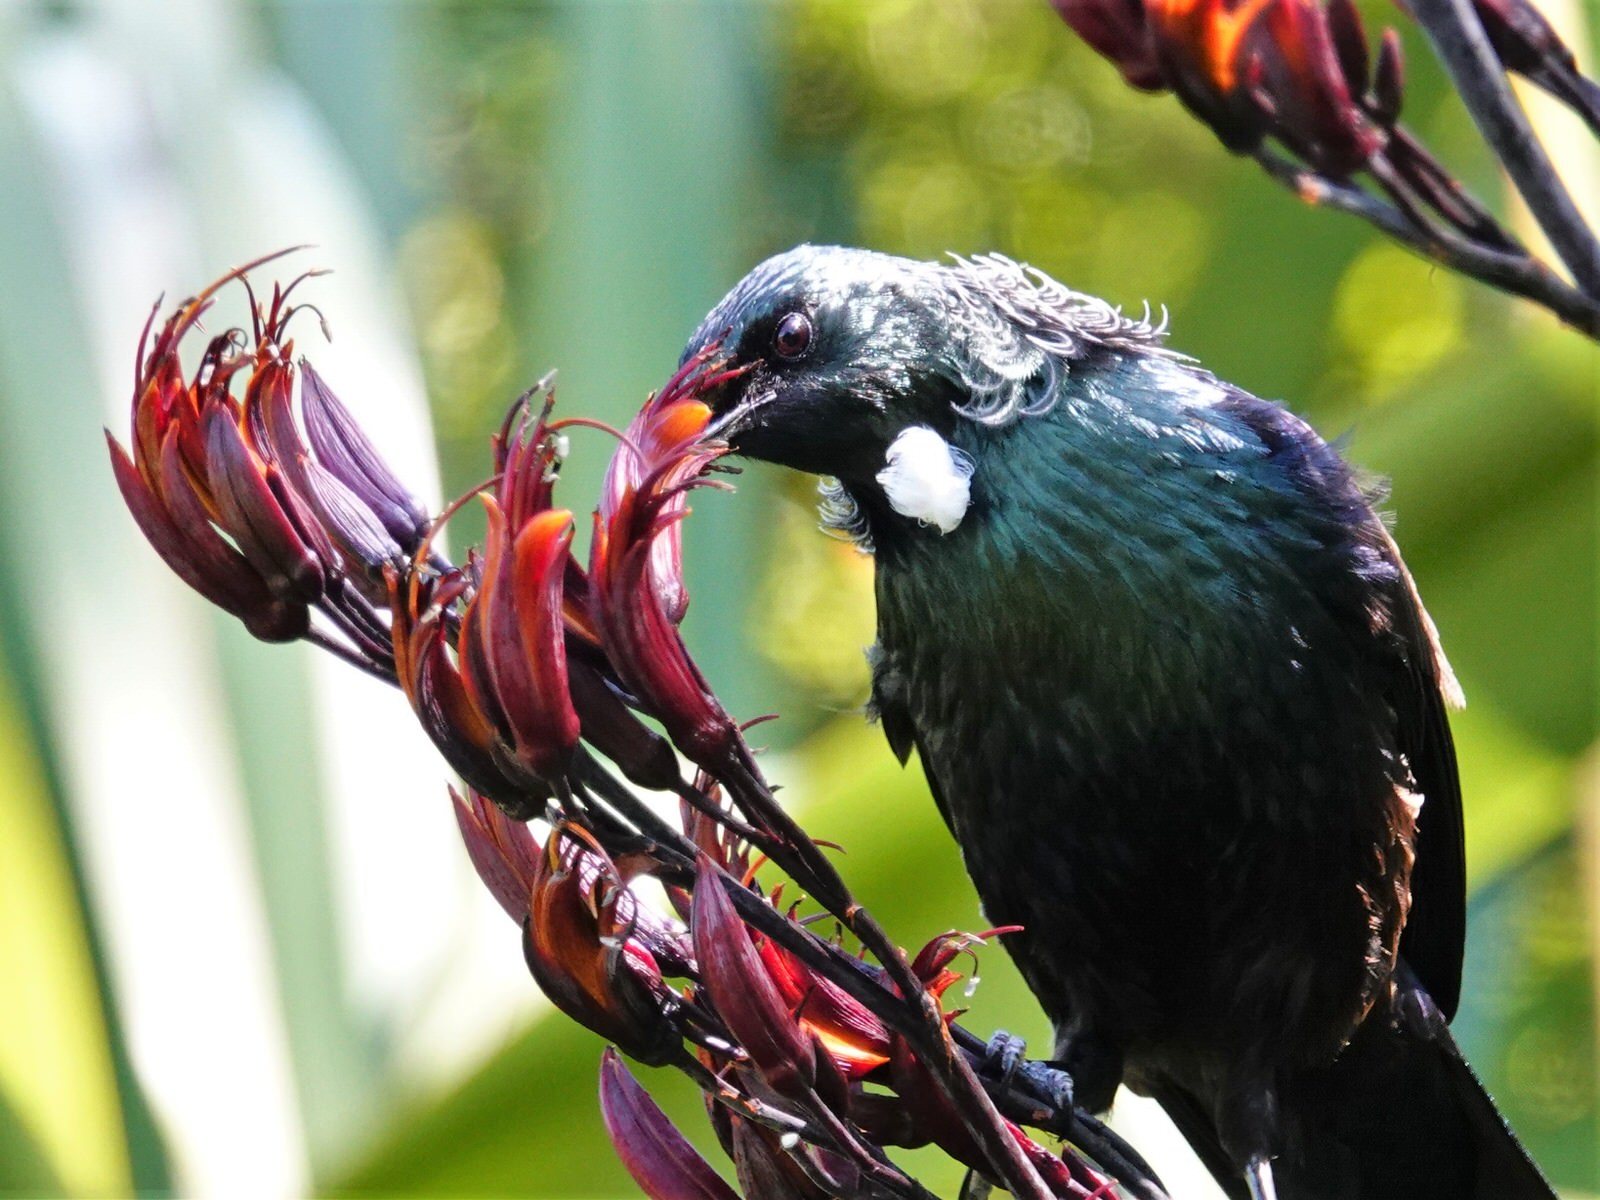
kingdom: Animalia
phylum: Chordata
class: Aves
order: Passeriformes
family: Meliphagidae
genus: Prosthemadera
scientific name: Prosthemadera novaeseelandiae
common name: Tui
